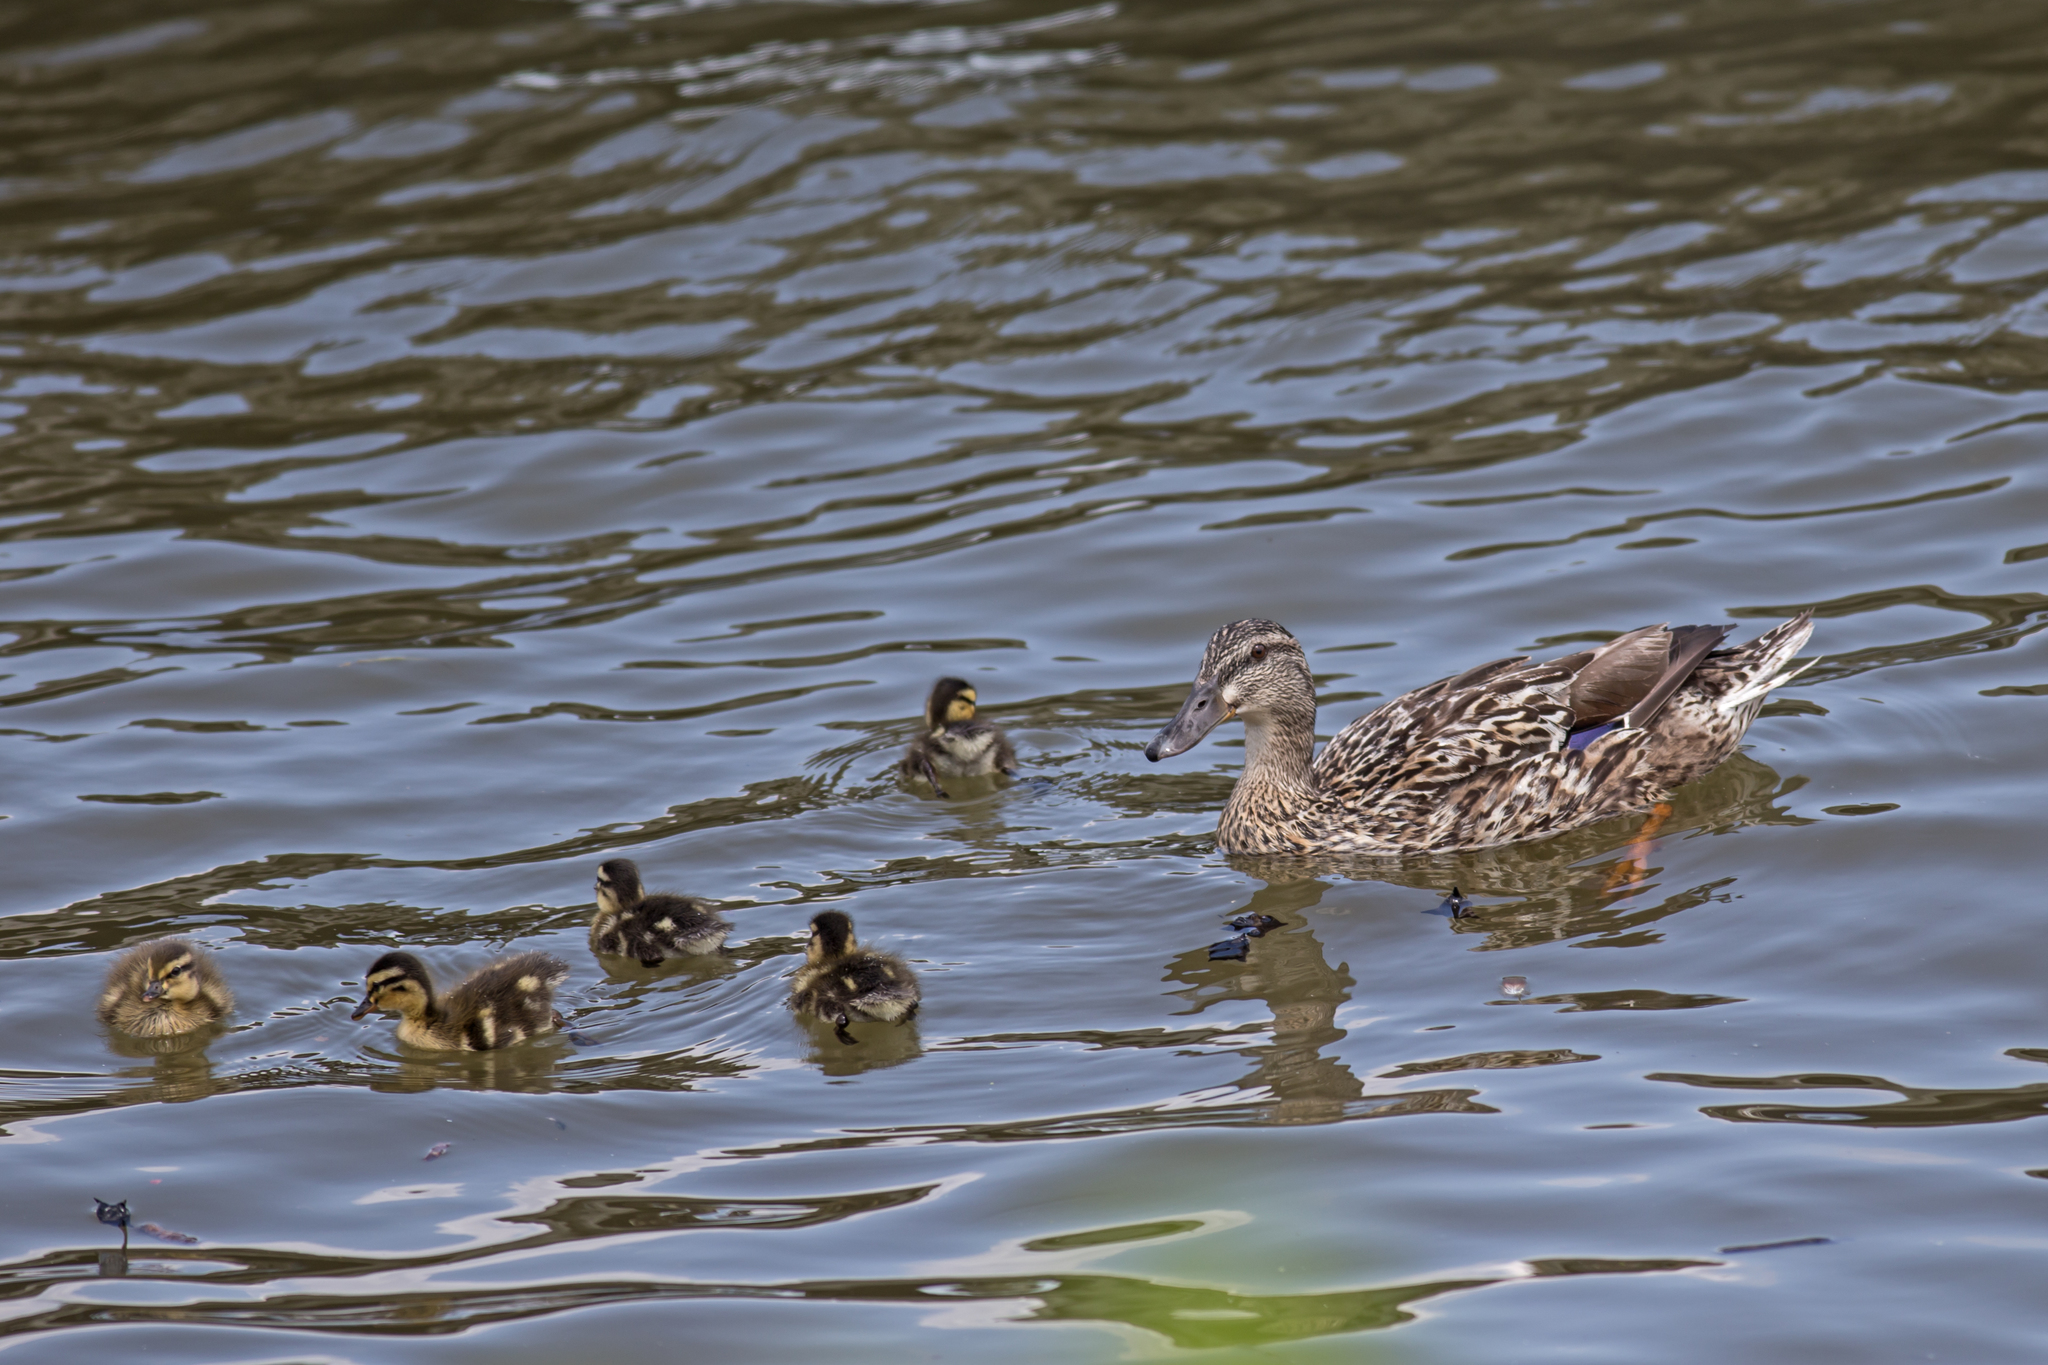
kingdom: Animalia
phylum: Chordata
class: Aves
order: Anseriformes
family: Anatidae
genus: Anas
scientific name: Anas platyrhynchos
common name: Mallard
